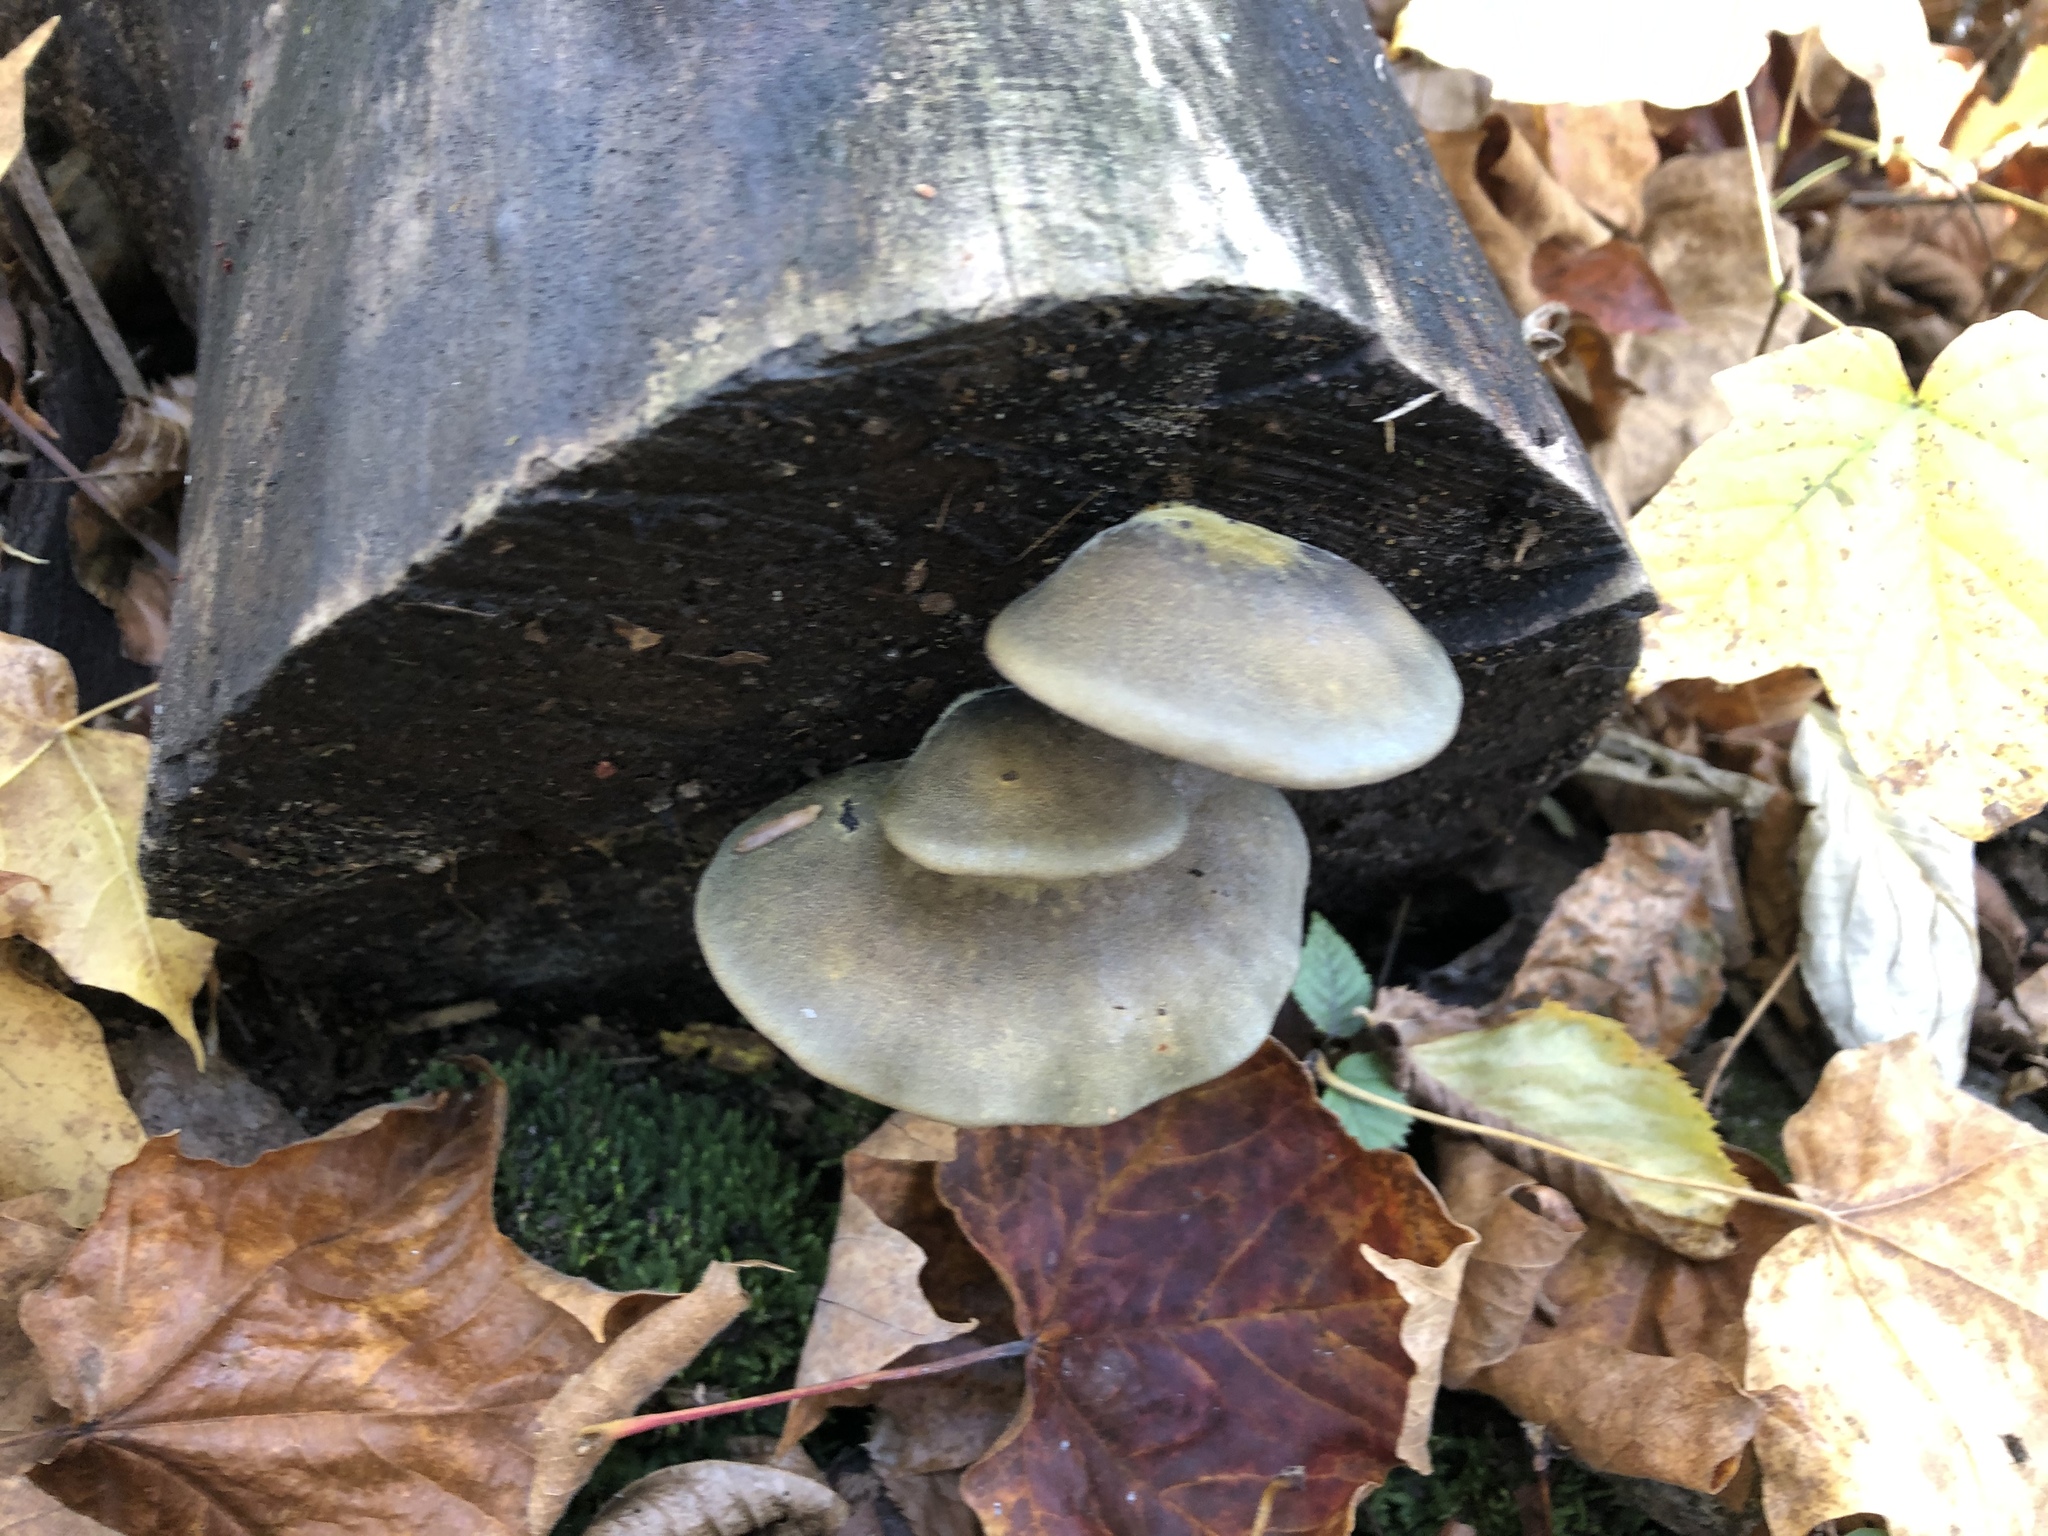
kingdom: Fungi
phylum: Basidiomycota
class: Agaricomycetes
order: Agaricales
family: Sarcomyxaceae
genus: Sarcomyxa
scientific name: Sarcomyxa serotina
